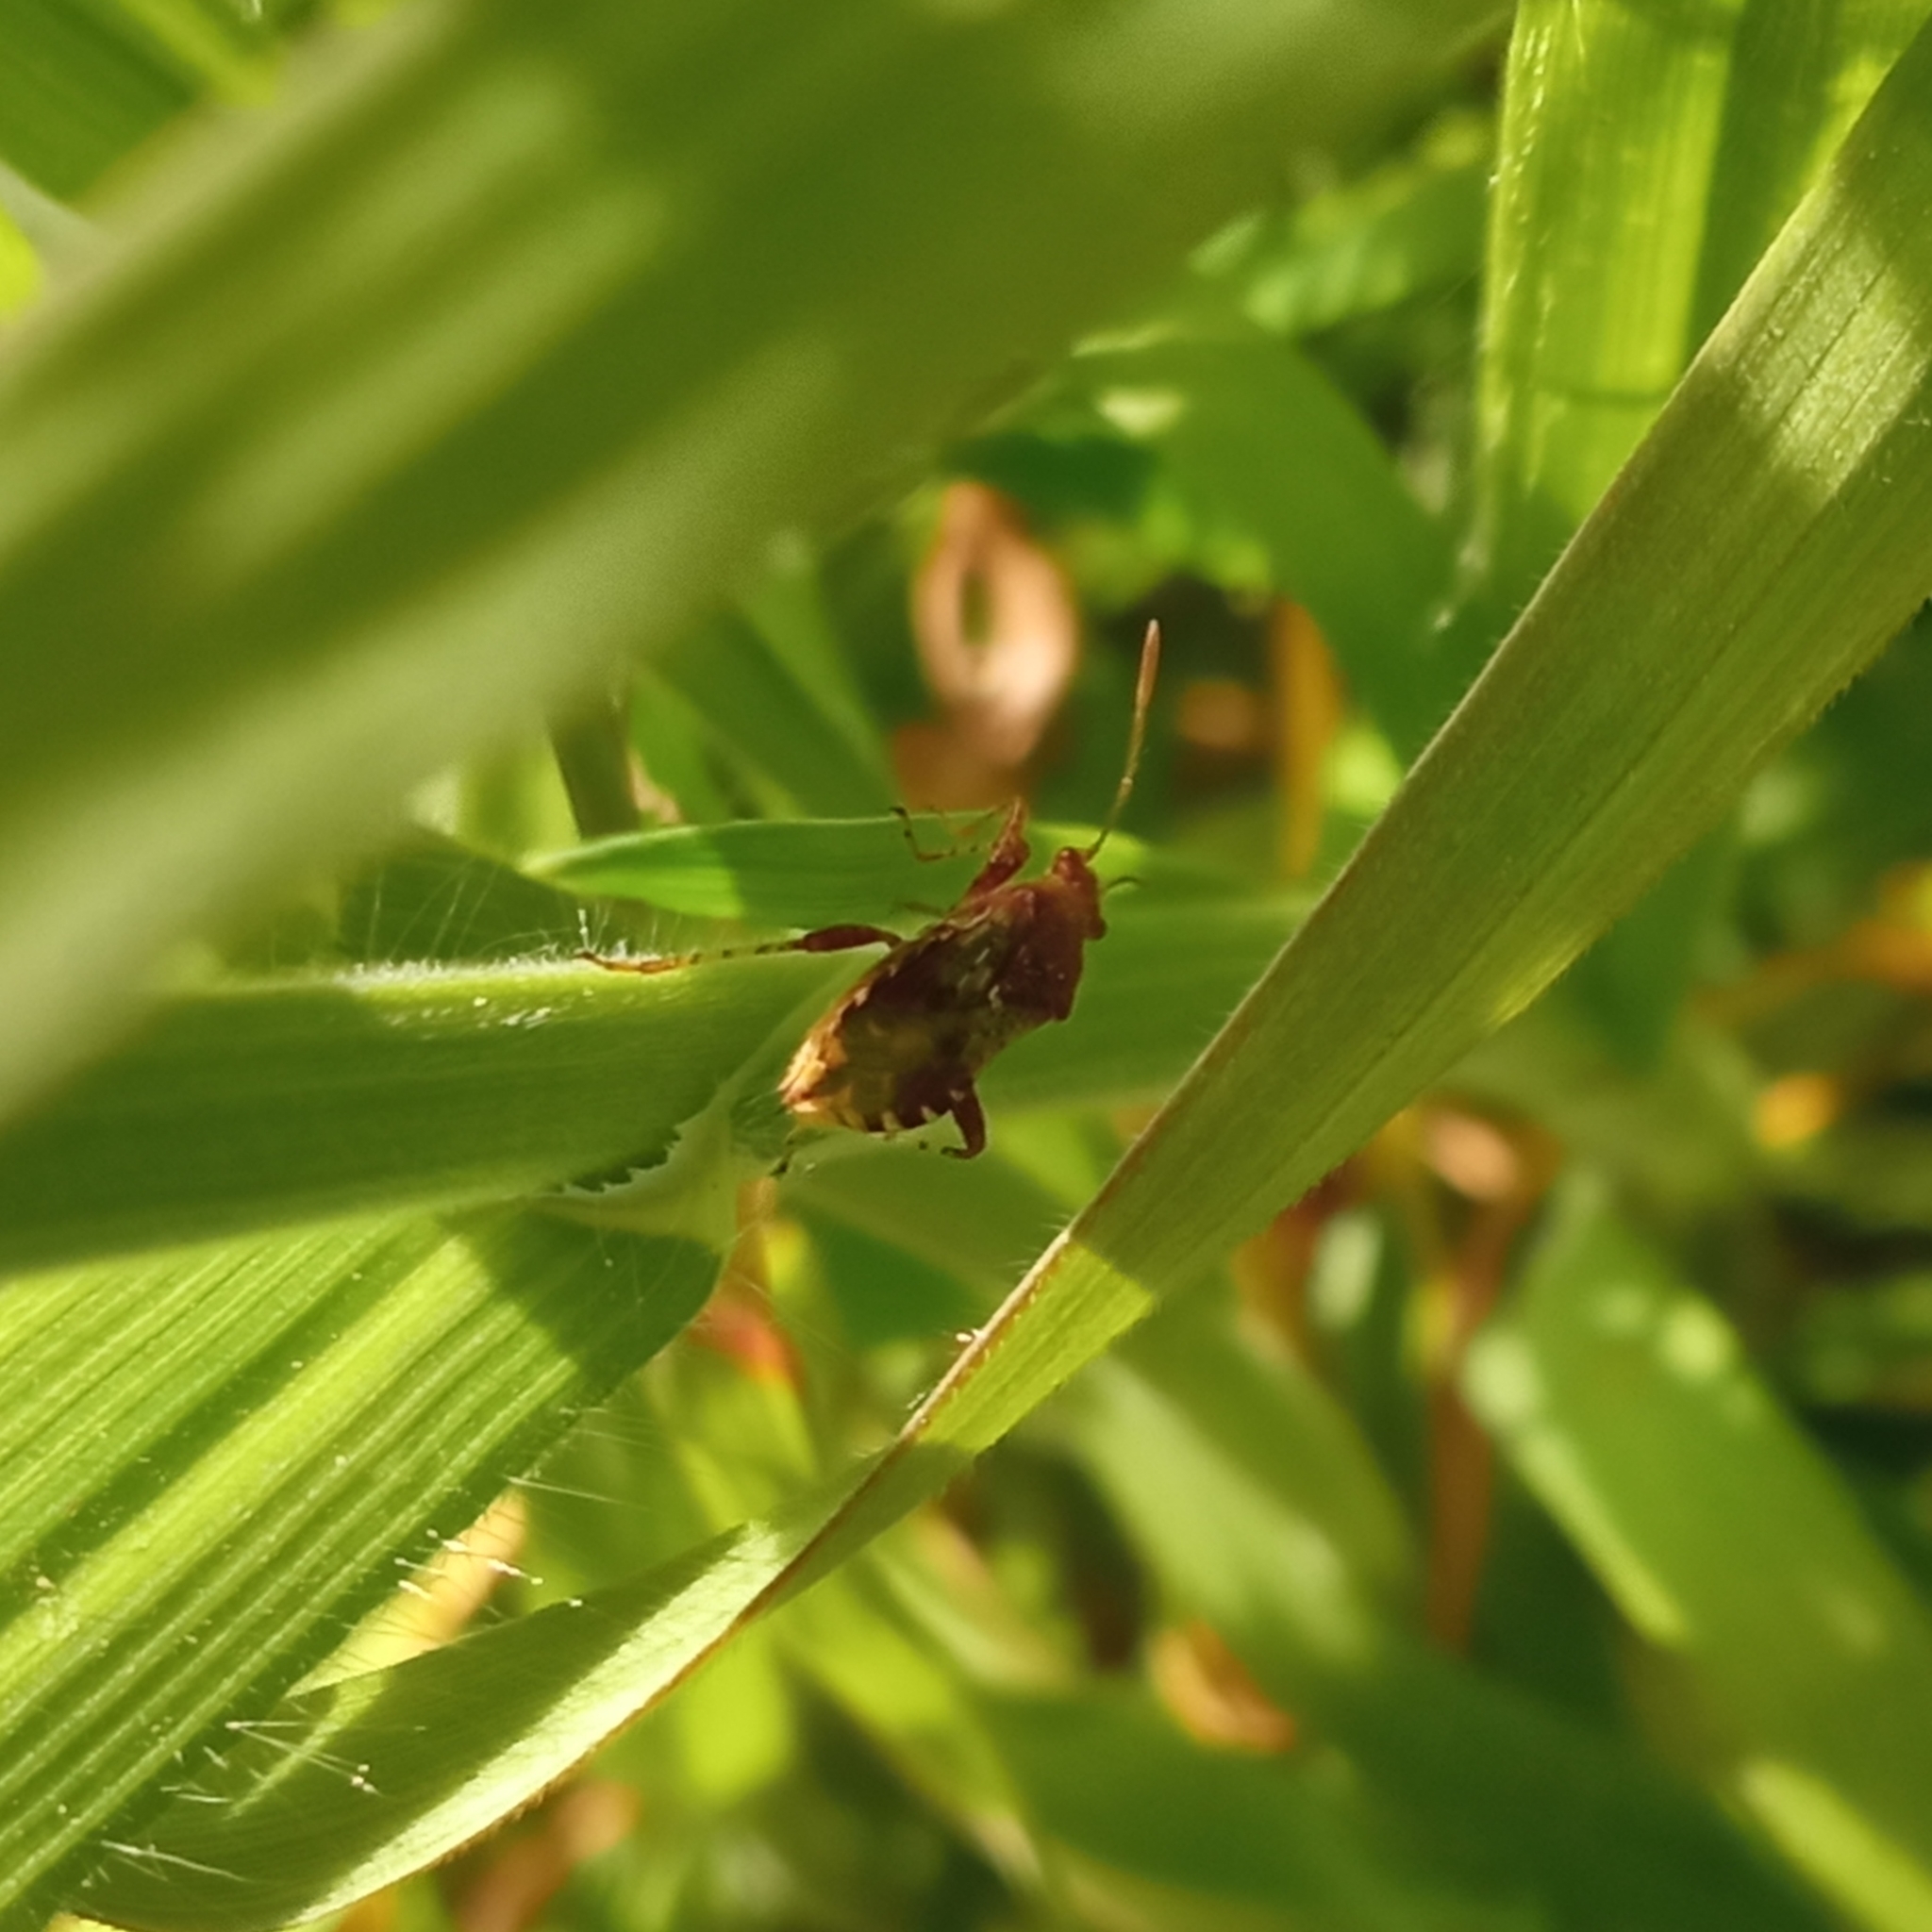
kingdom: Animalia
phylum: Arthropoda
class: Insecta
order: Hemiptera
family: Rhopalidae
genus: Rhopalus
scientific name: Rhopalus subrufus
